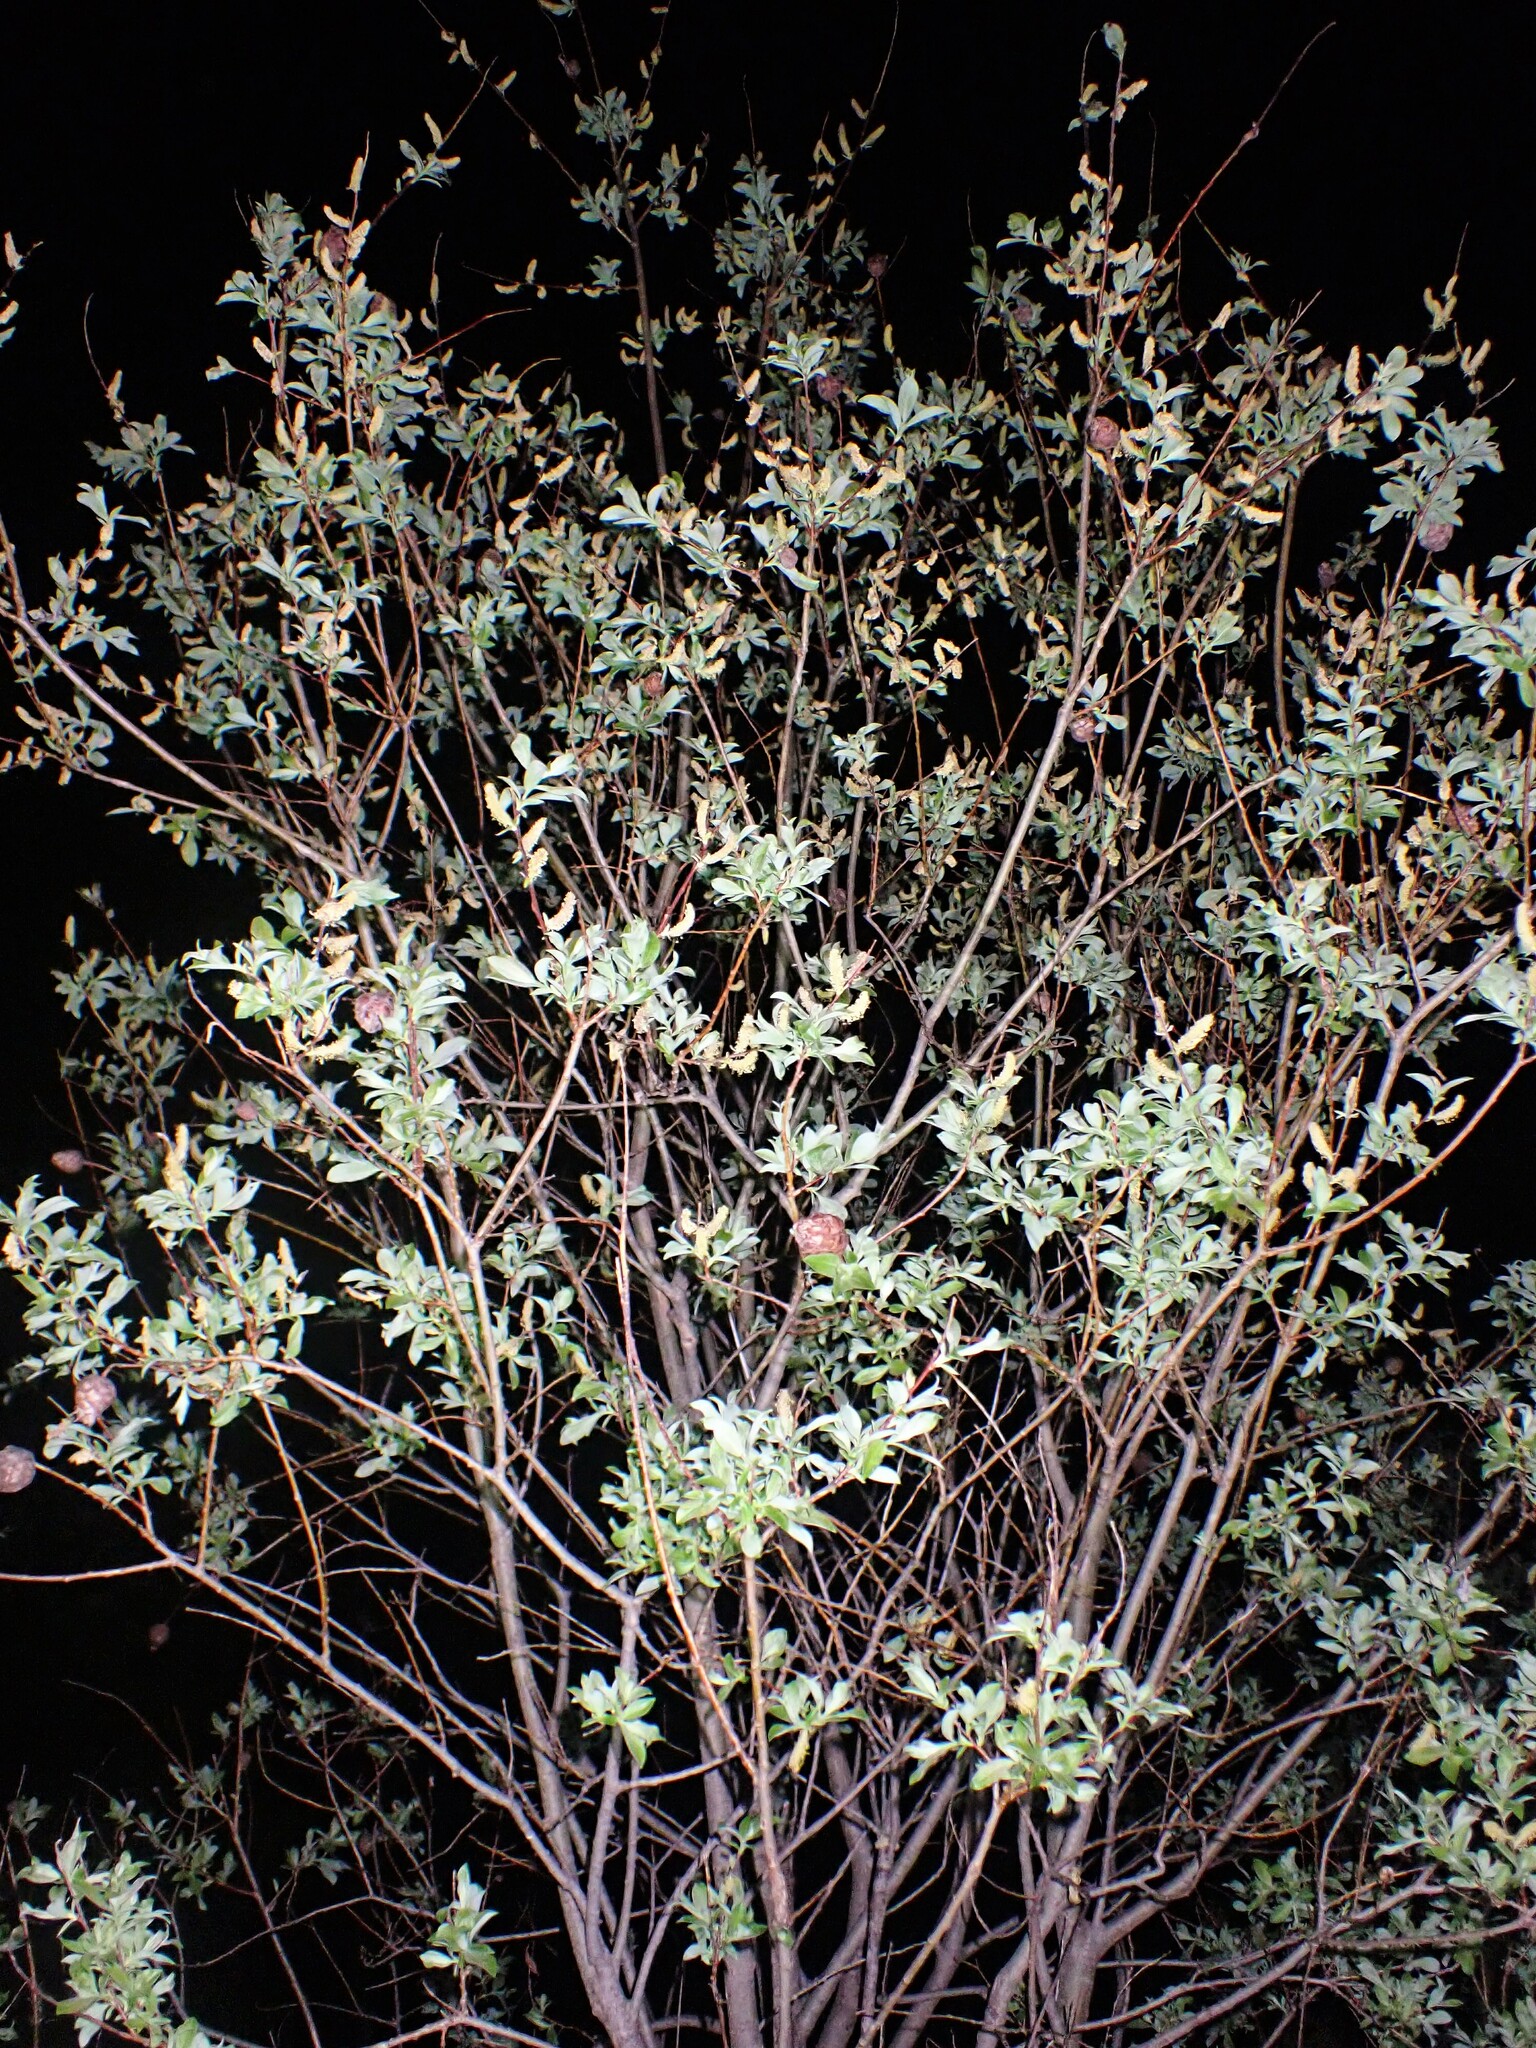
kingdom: Plantae
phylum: Tracheophyta
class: Magnoliopsida
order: Malpighiales
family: Salicaceae
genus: Salix
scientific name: Salix bebbiana
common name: Bebb's willow
